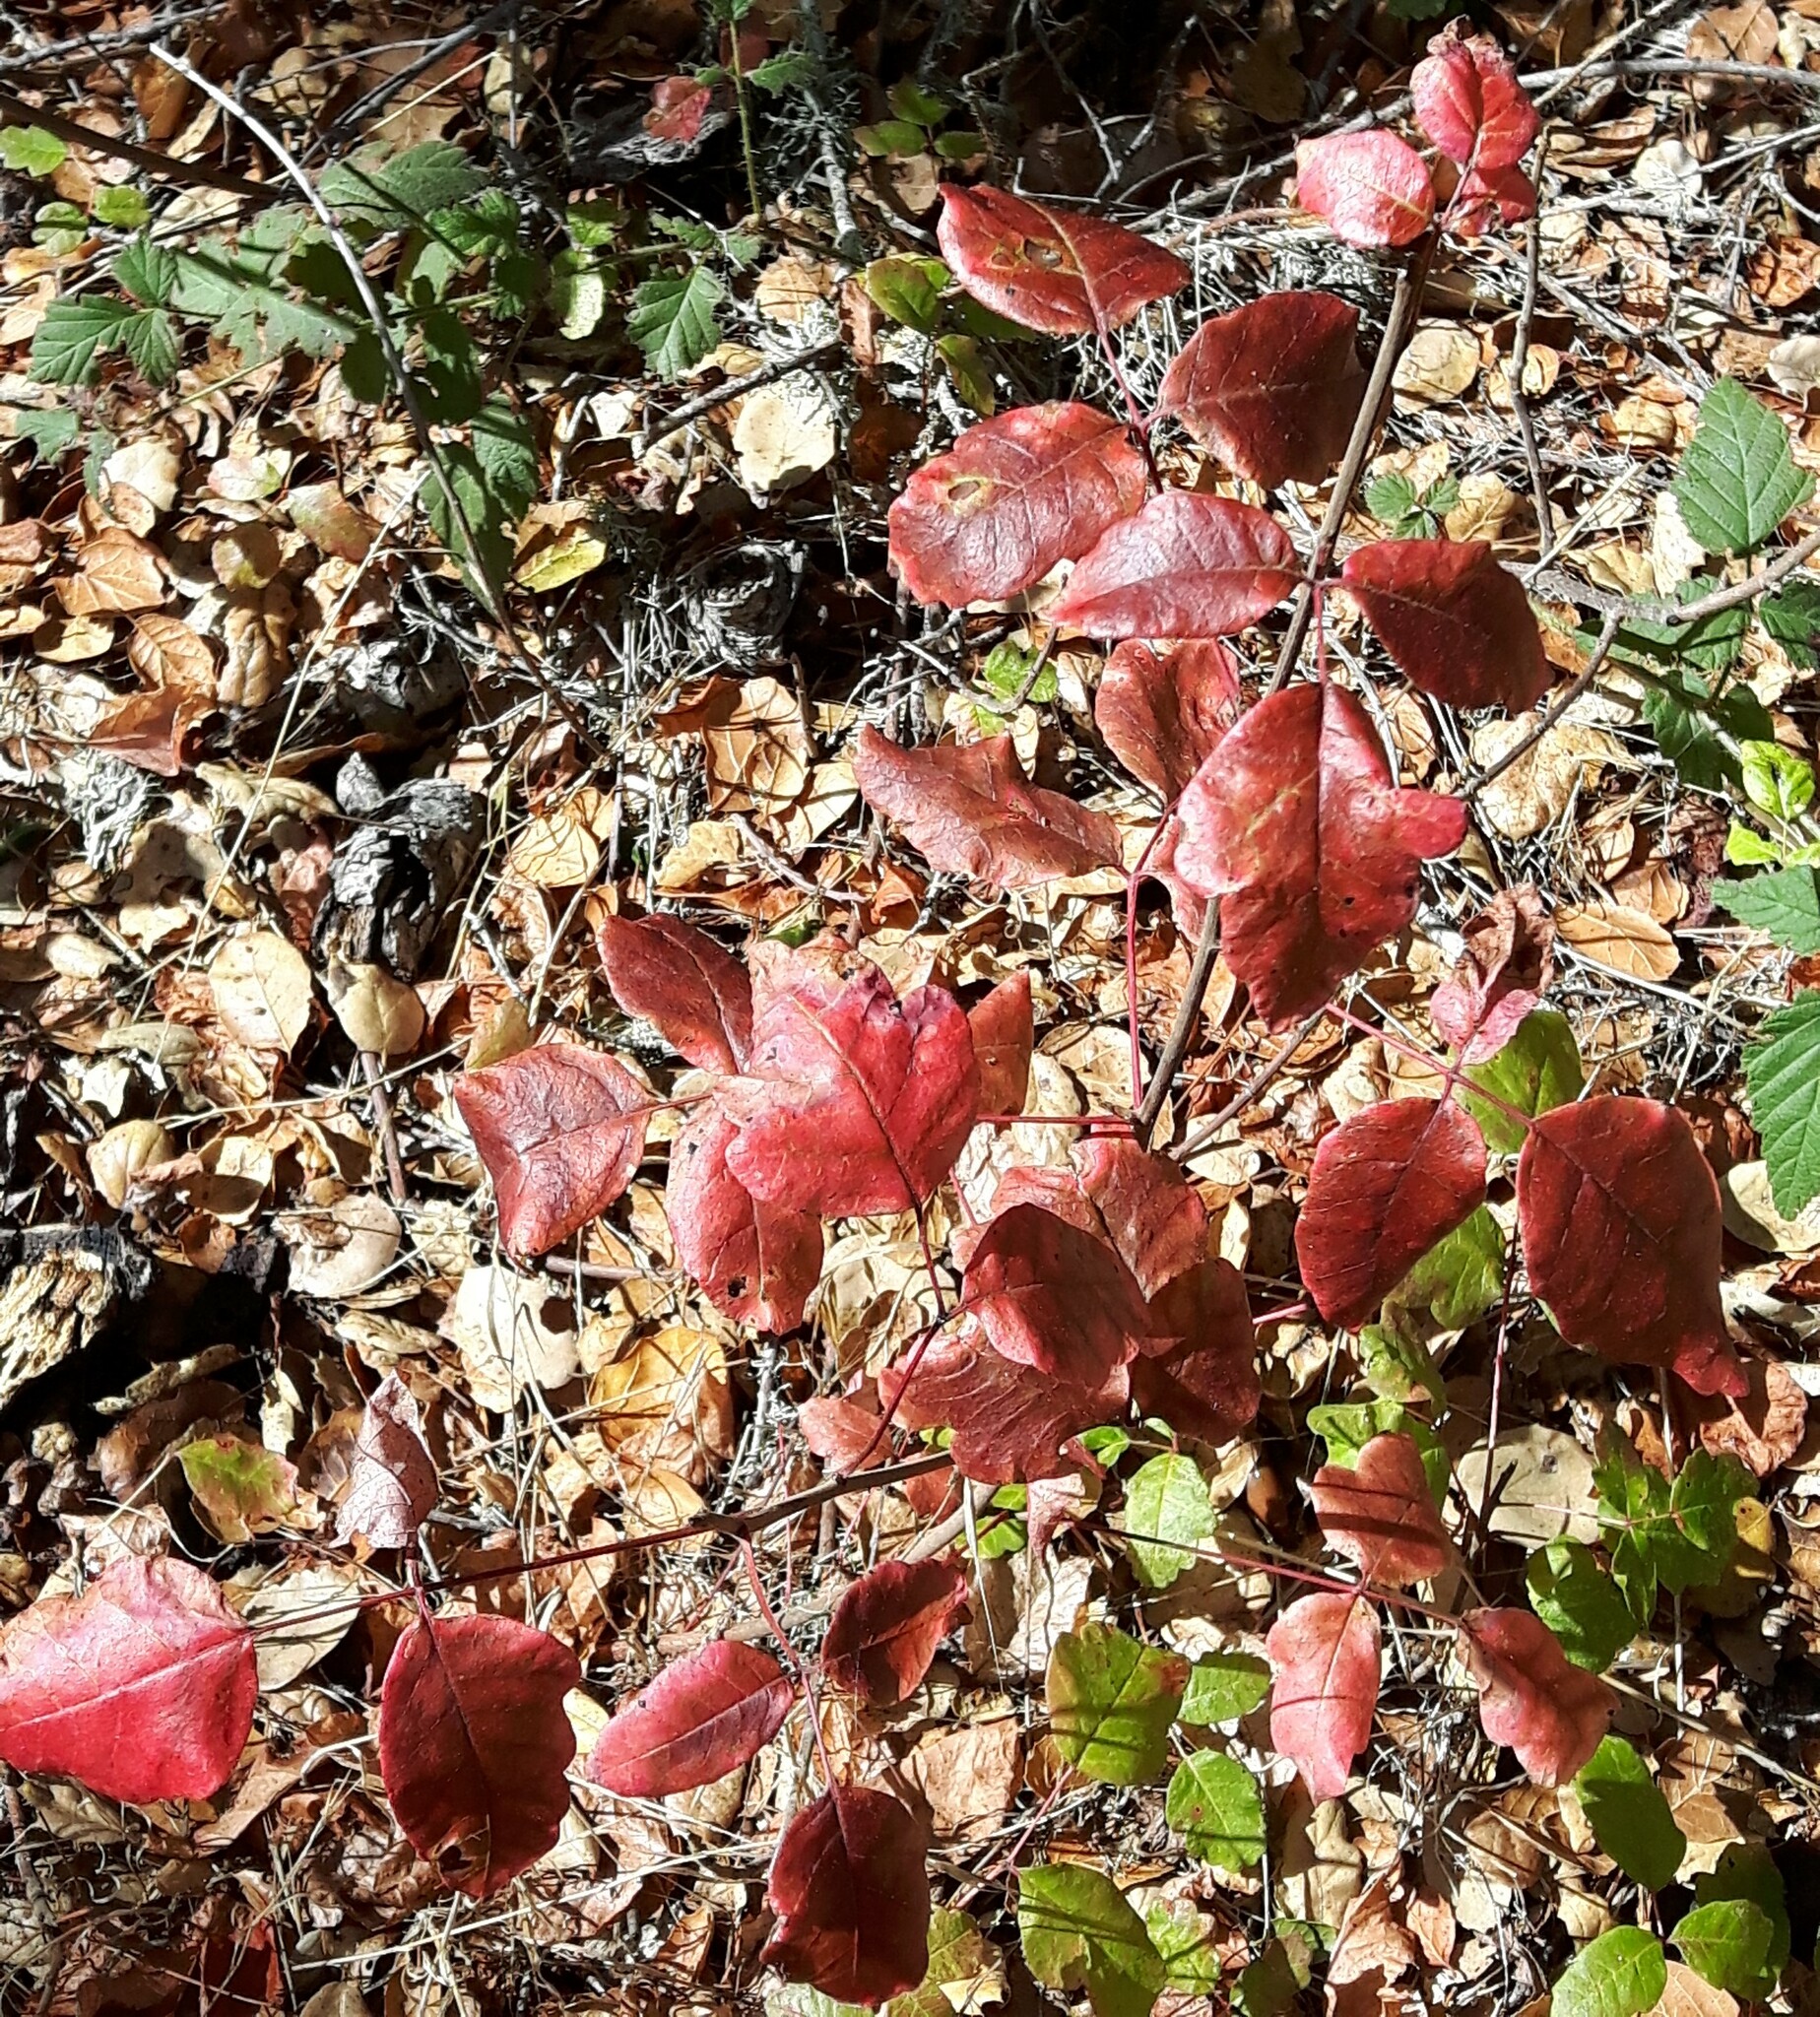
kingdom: Plantae
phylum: Tracheophyta
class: Magnoliopsida
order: Sapindales
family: Anacardiaceae
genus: Toxicodendron
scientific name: Toxicodendron diversilobum
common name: Pacific poison-oak
